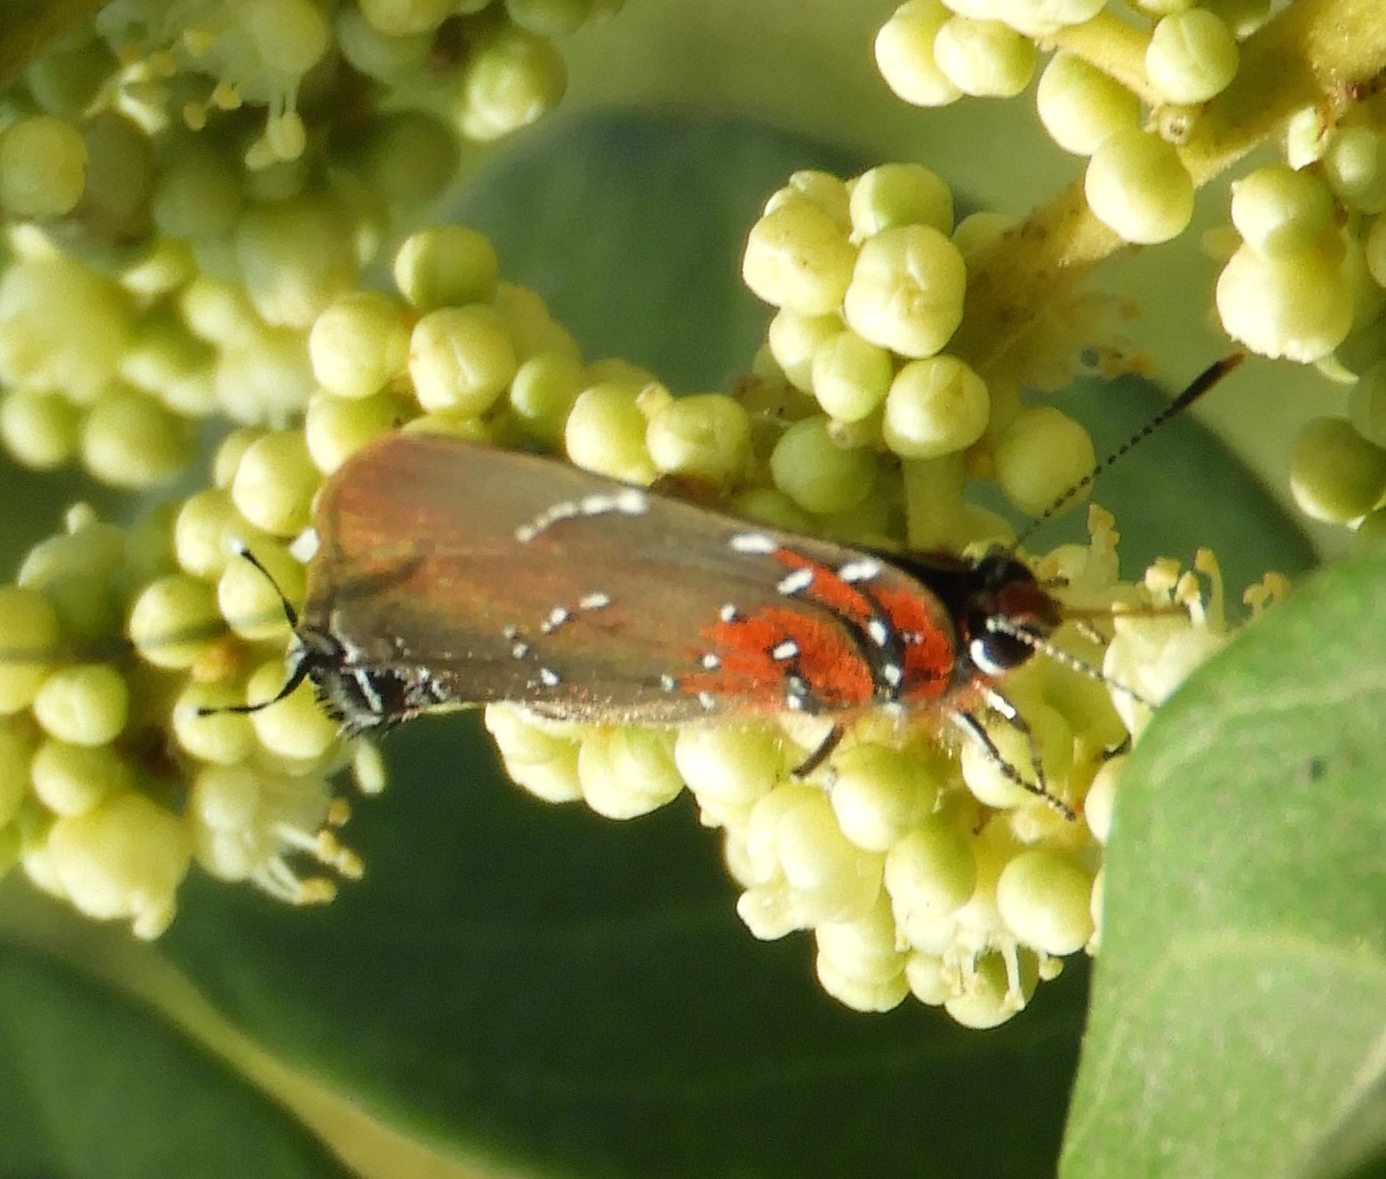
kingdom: Animalia
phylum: Arthropoda
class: Insecta
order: Lepidoptera
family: Lycaenidae
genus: Atlides
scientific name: Atlides Brangas neora
